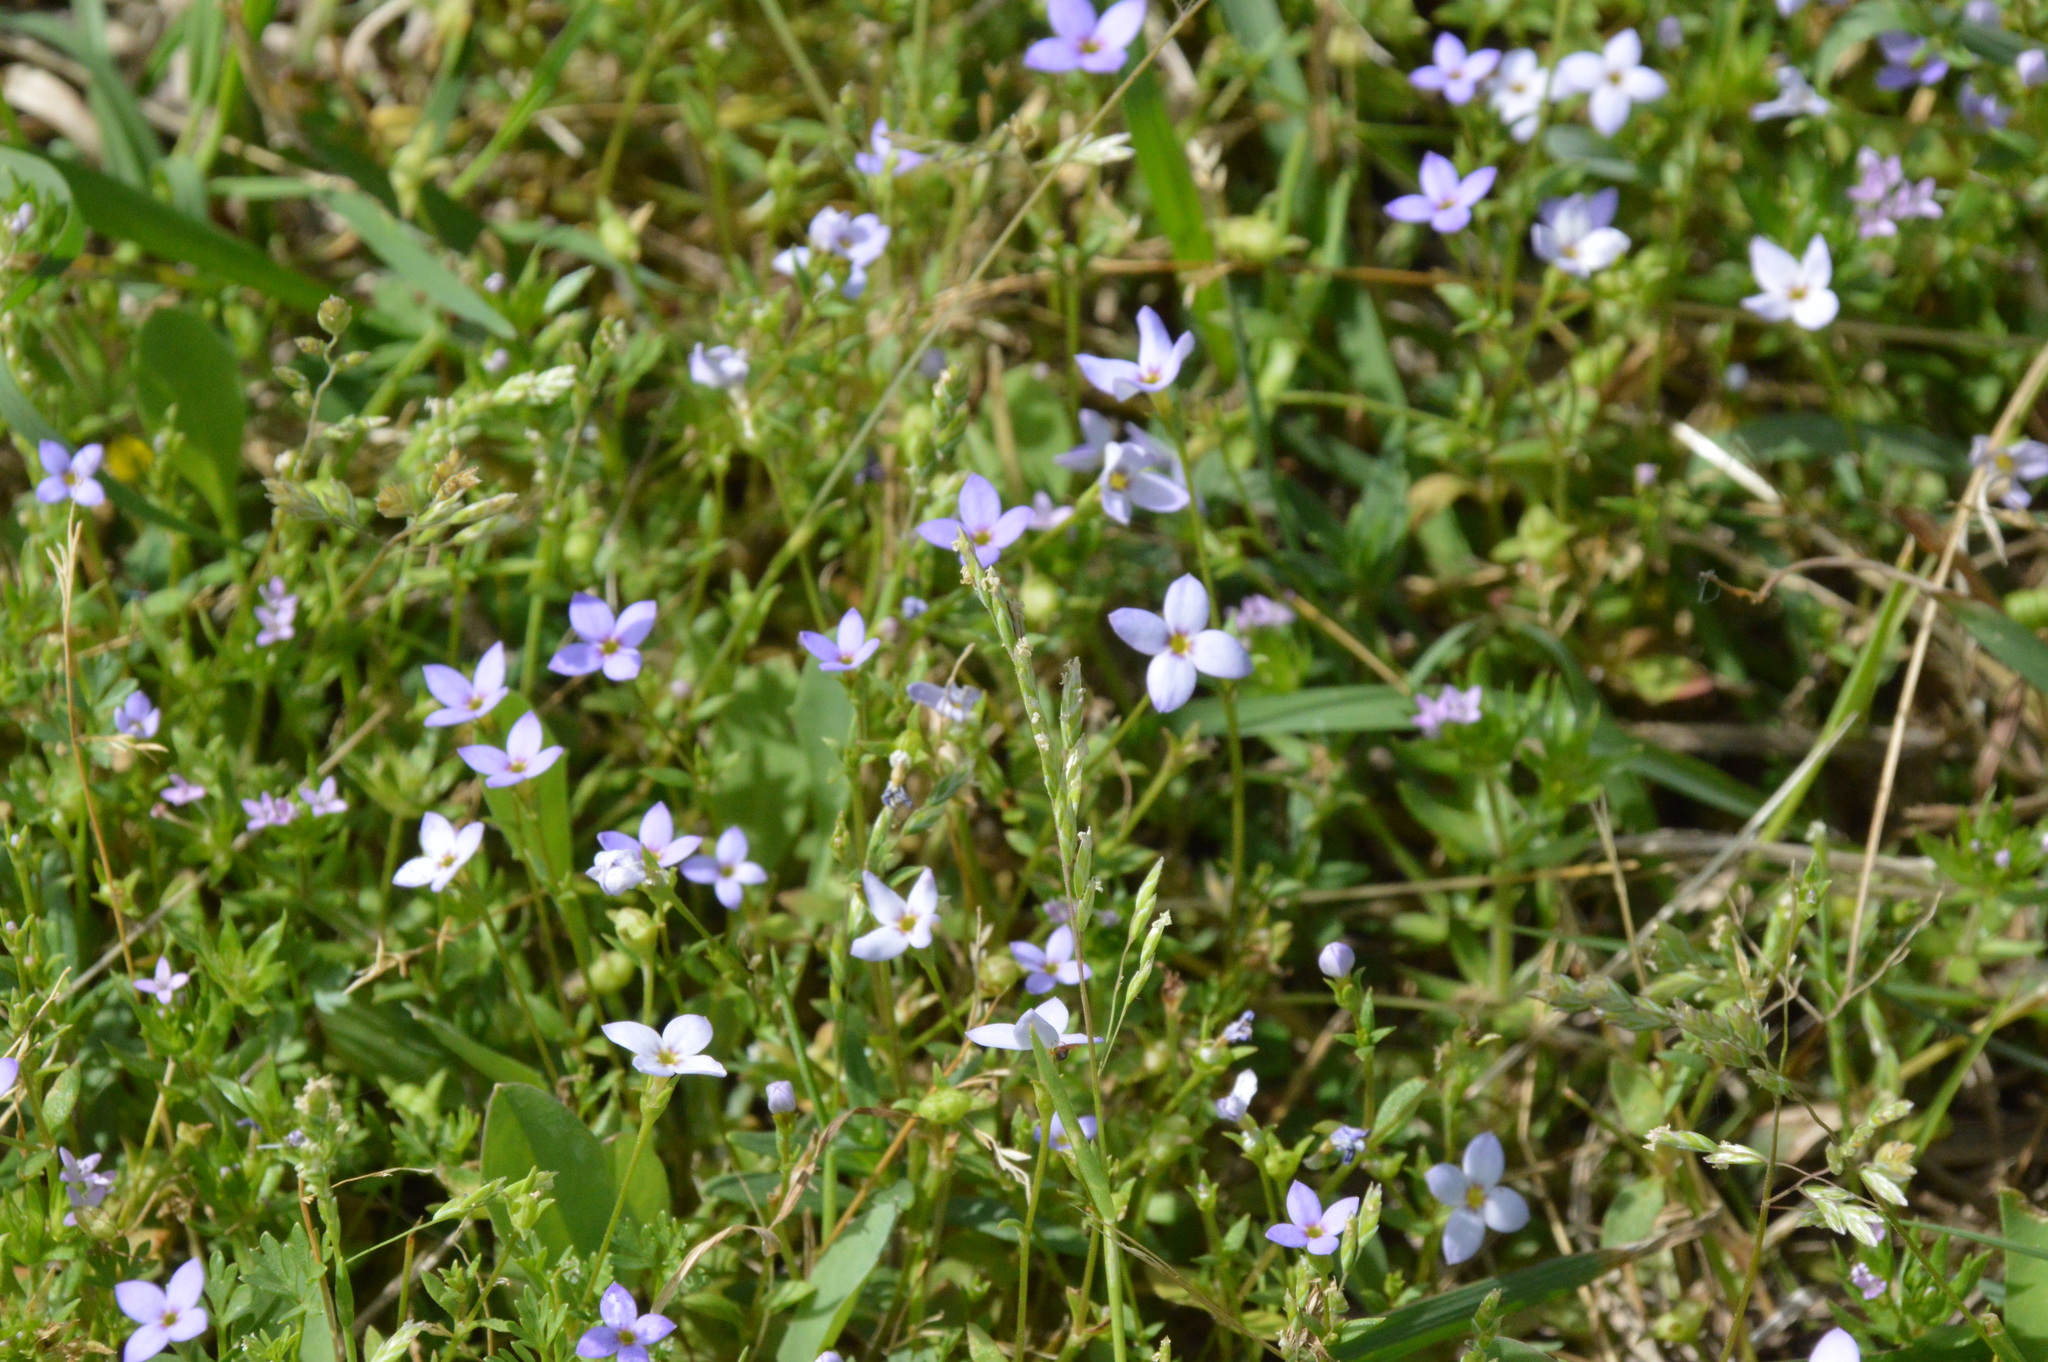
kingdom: Plantae
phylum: Tracheophyta
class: Magnoliopsida
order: Gentianales
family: Rubiaceae
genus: Houstonia
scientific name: Houstonia pusilla
